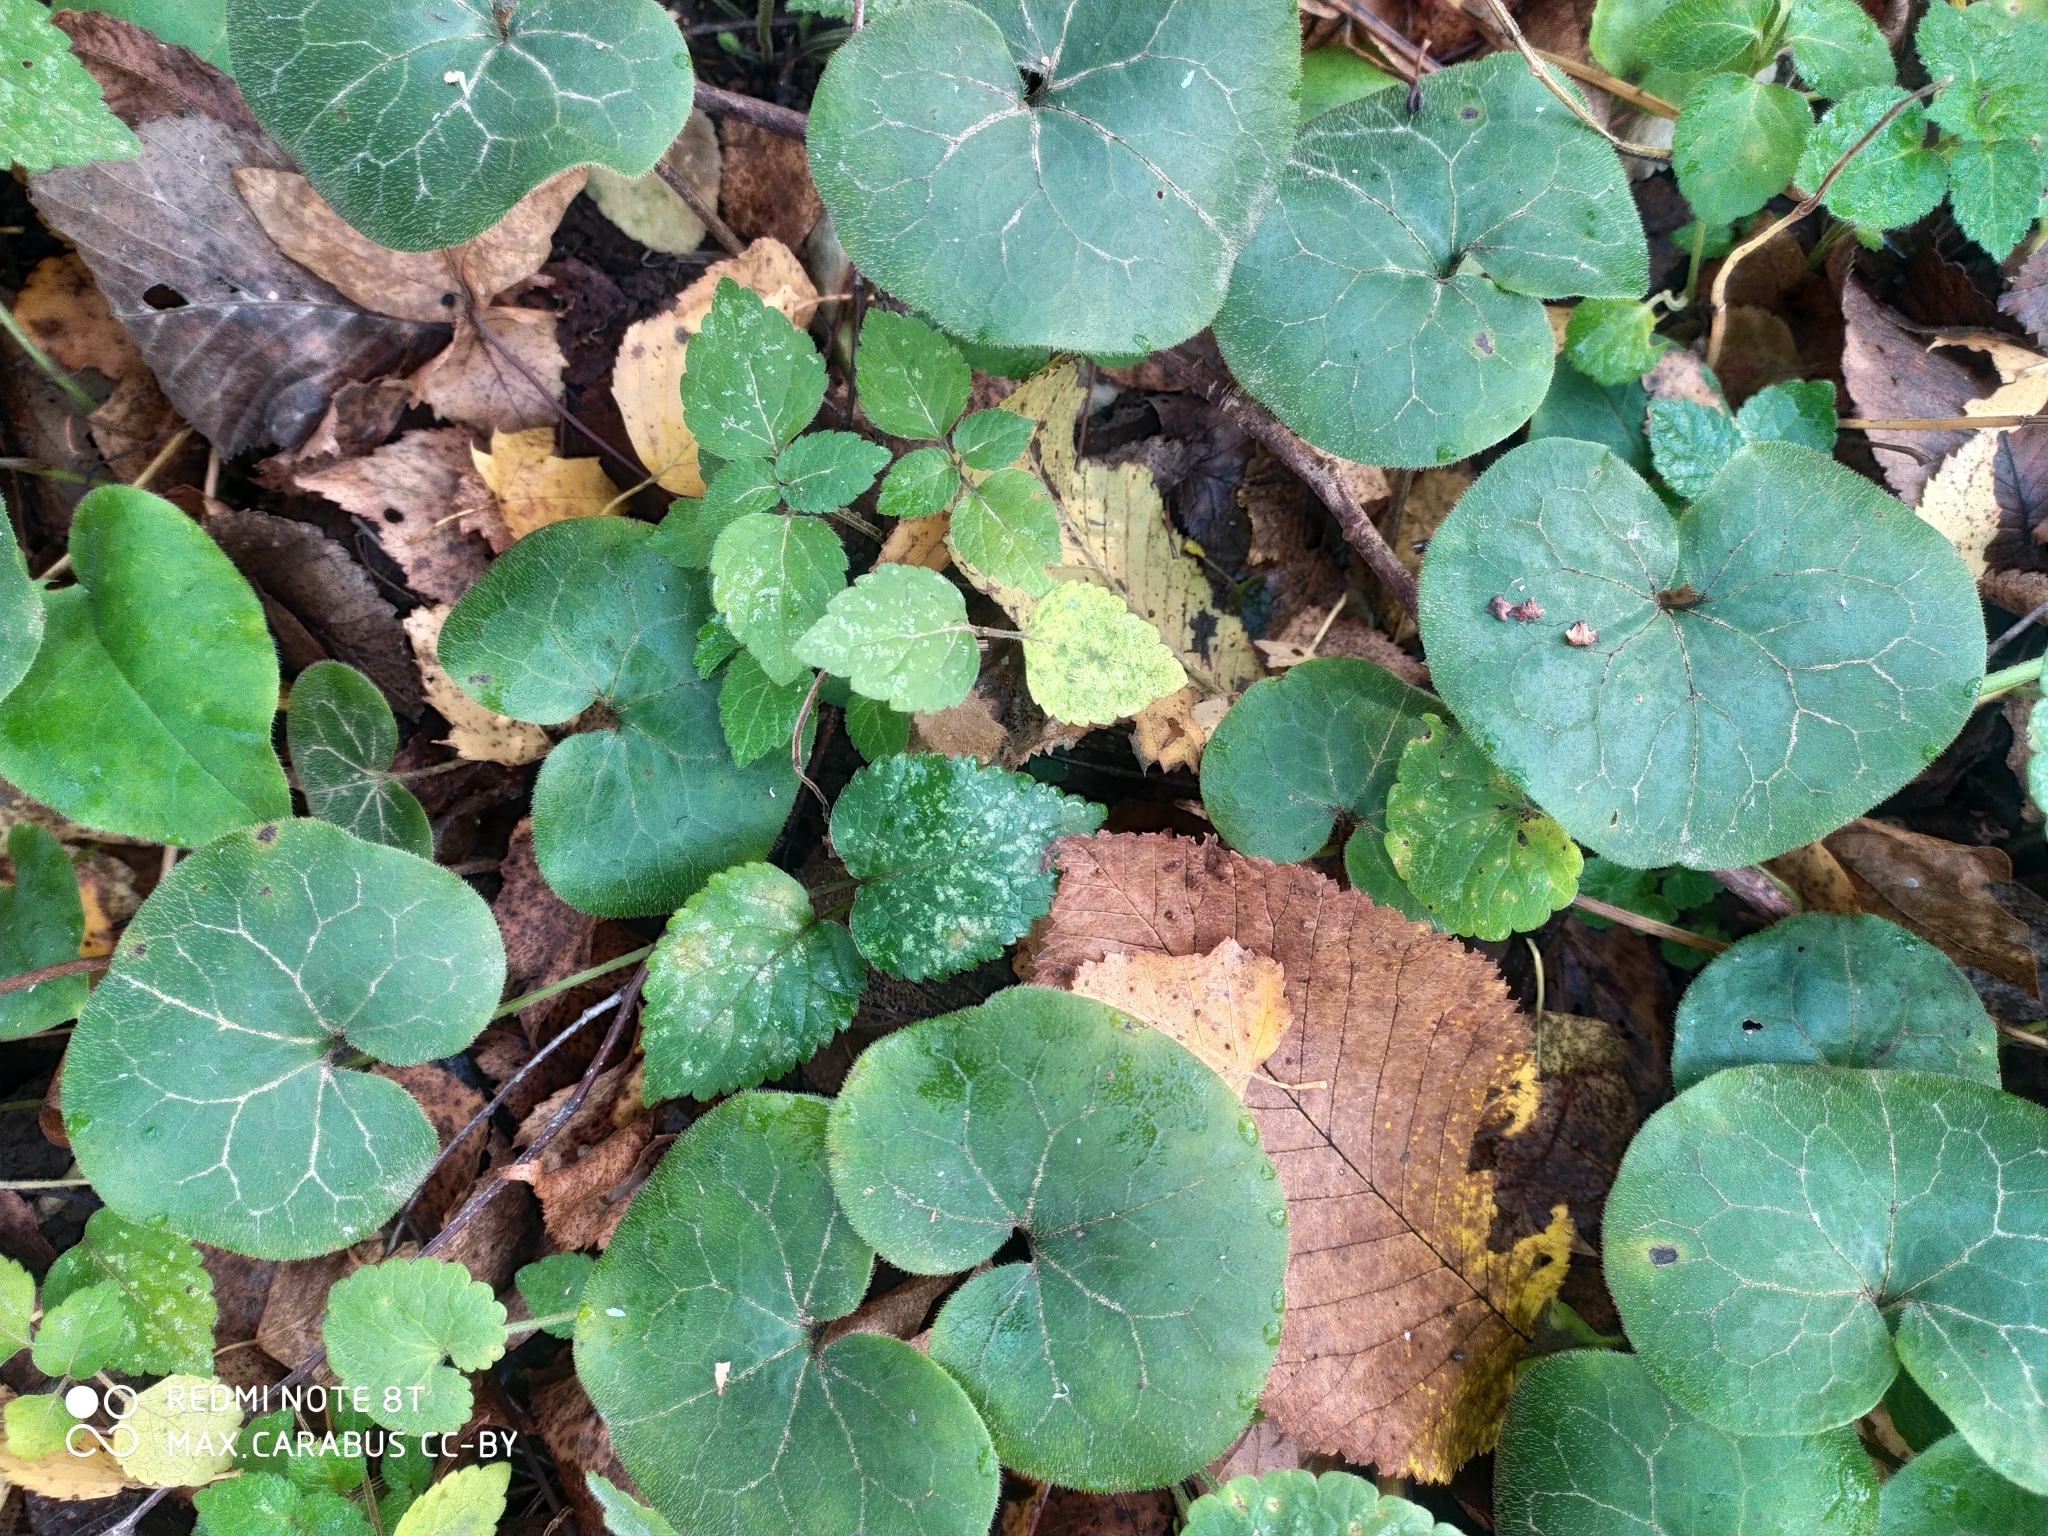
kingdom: Plantae
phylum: Tracheophyta
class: Magnoliopsida
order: Piperales
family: Aristolochiaceae
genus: Asarum
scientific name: Asarum europaeum
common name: Asarabacca
